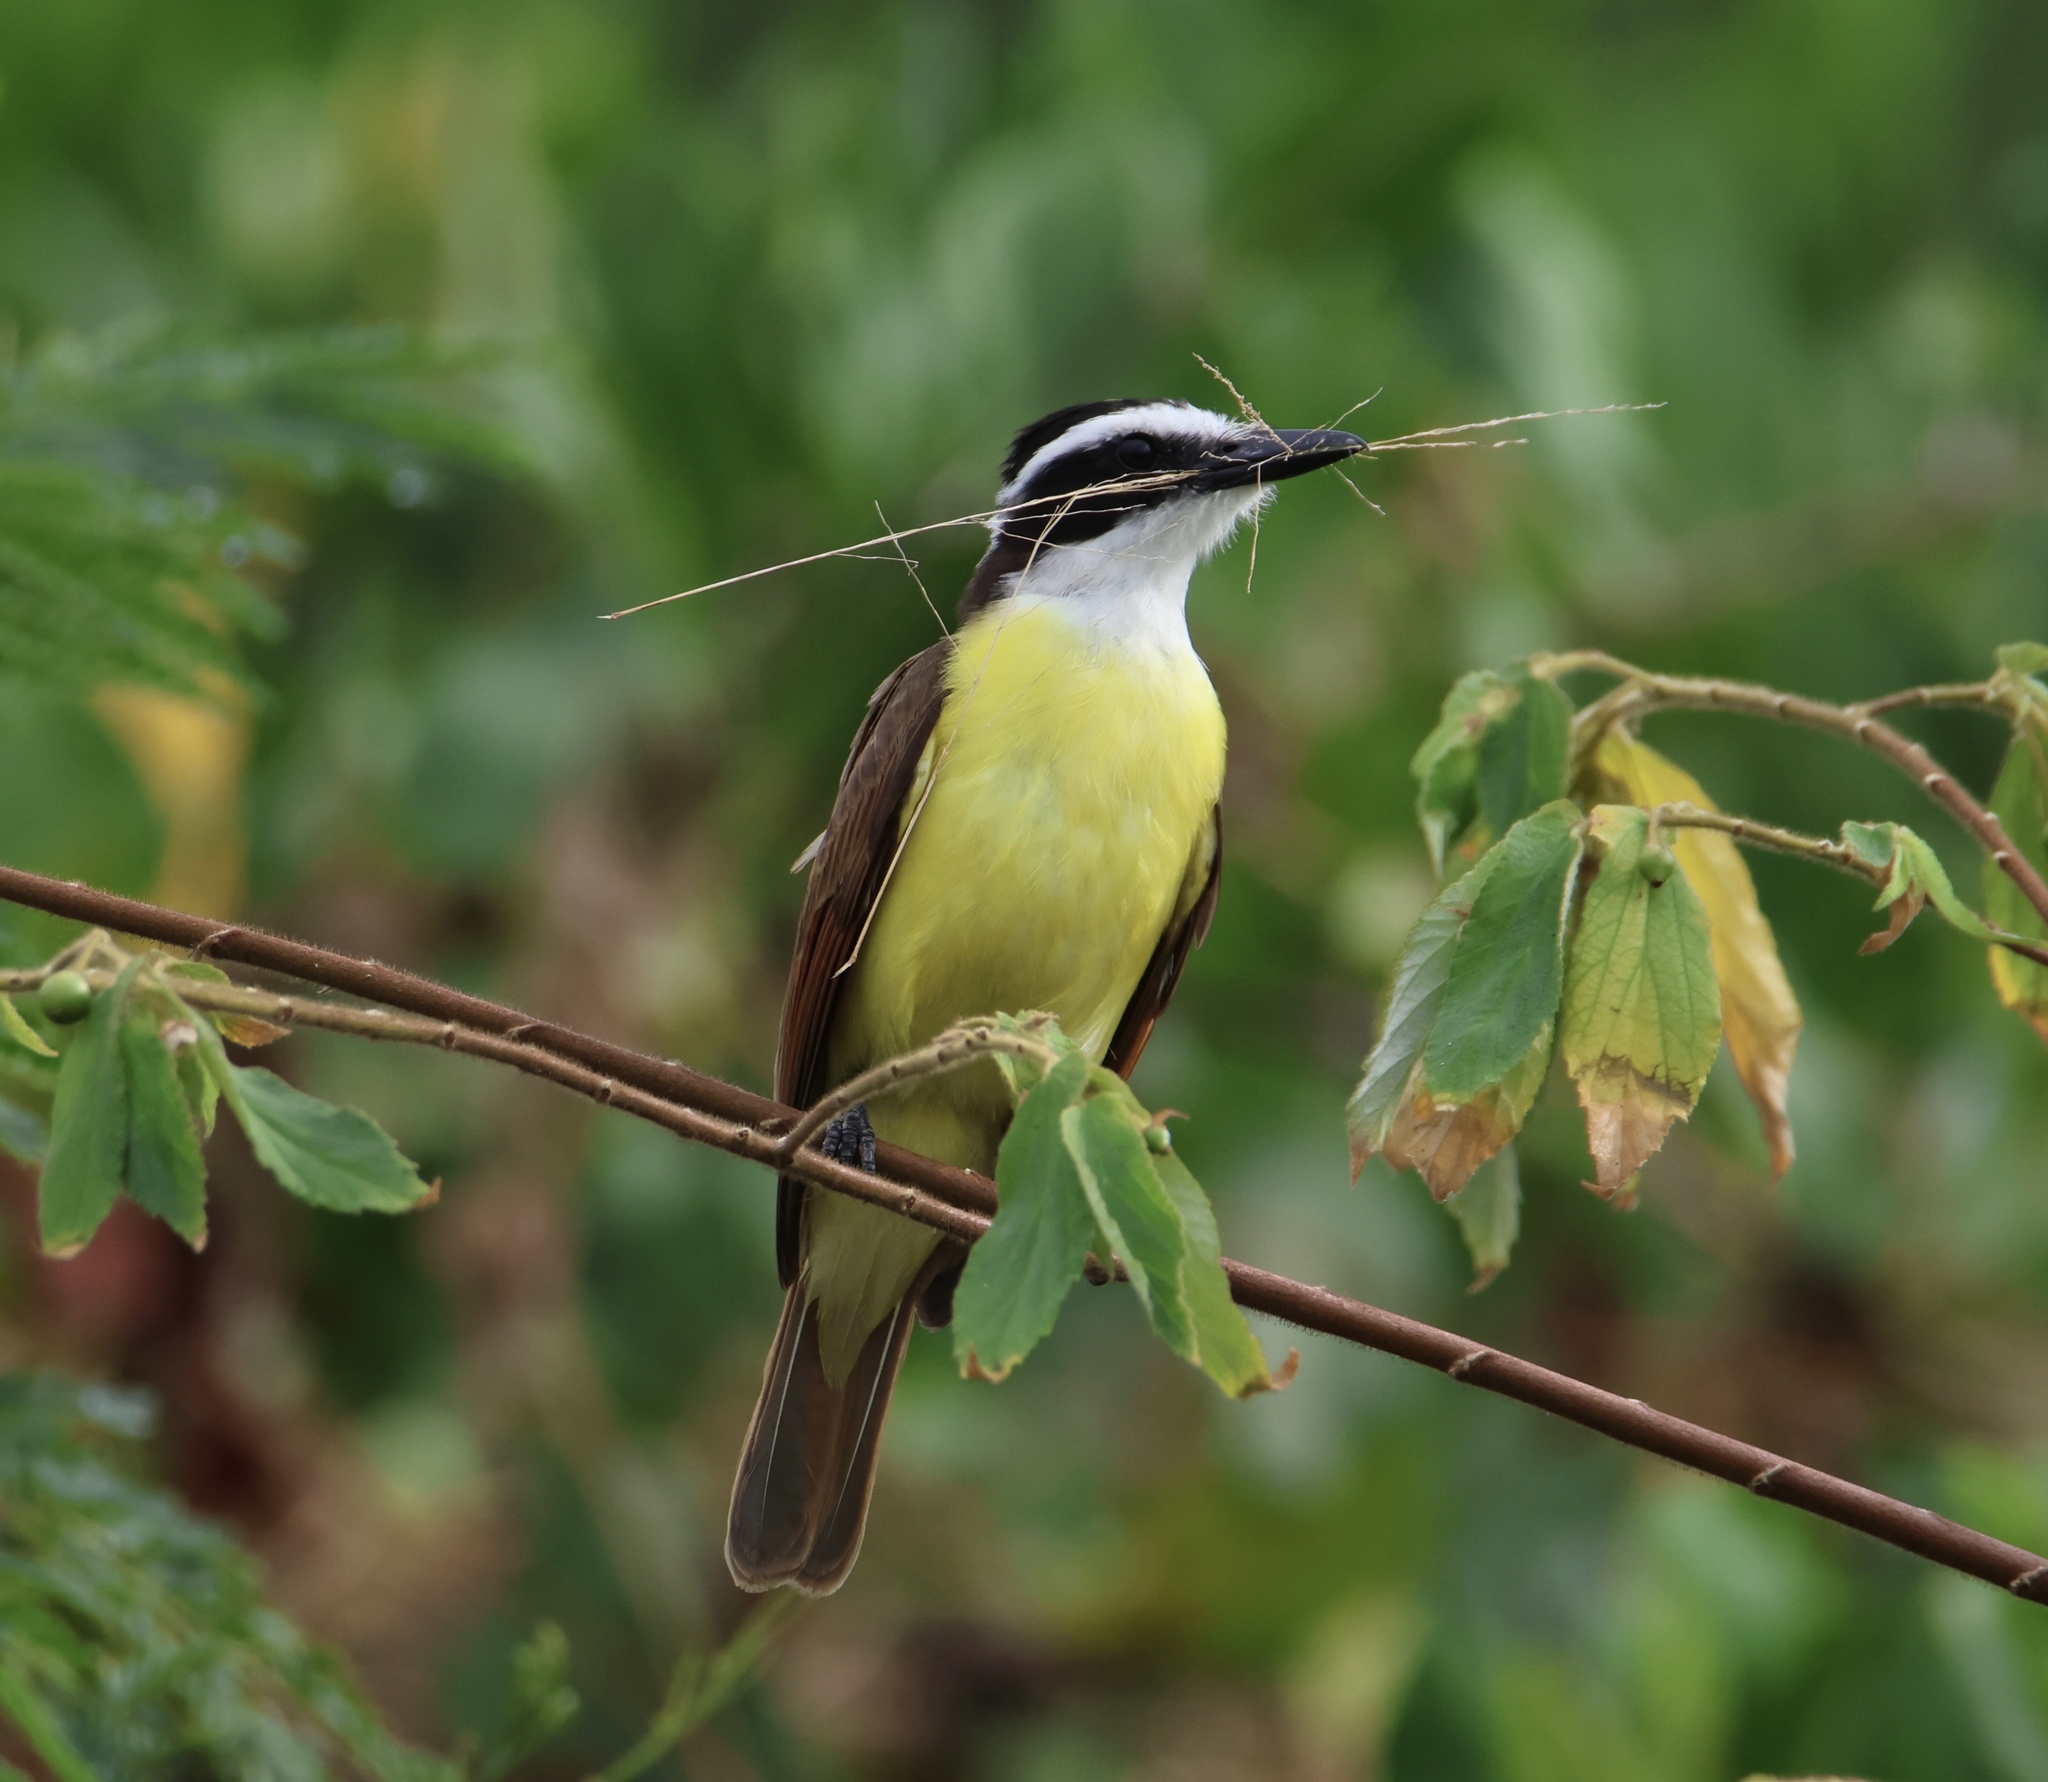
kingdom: Animalia
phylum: Chordata
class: Aves
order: Passeriformes
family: Tyrannidae
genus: Pitangus
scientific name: Pitangus sulphuratus
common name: Great kiskadee
